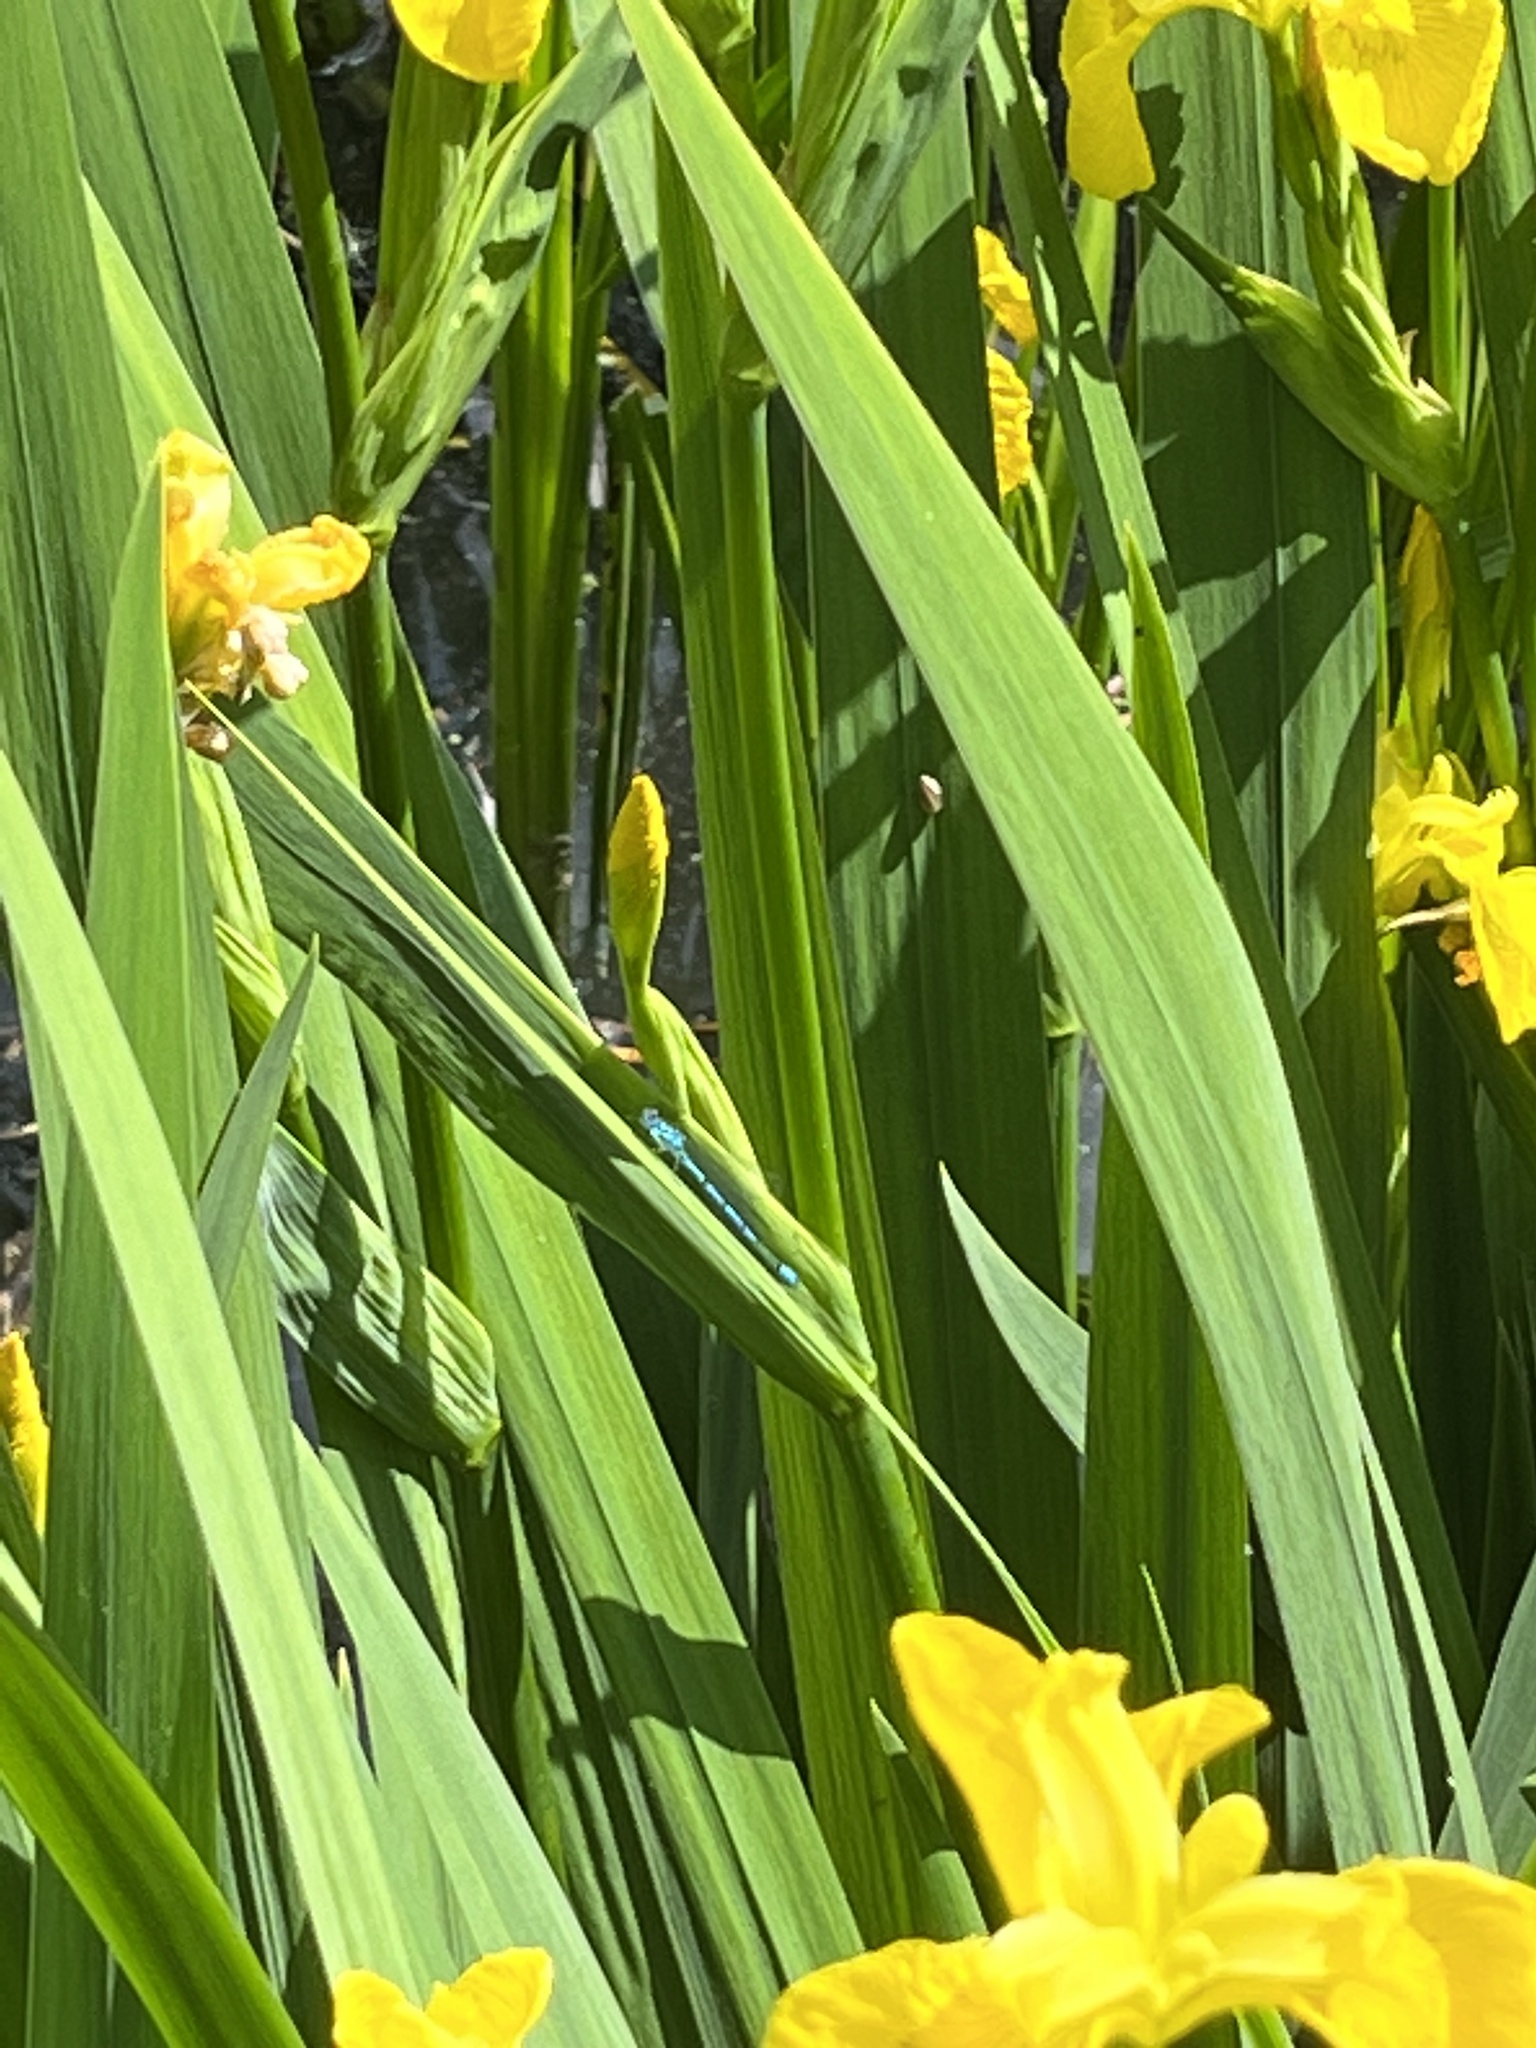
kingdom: Animalia
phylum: Arthropoda
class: Insecta
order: Odonata
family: Coenagrionidae
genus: Enallagma
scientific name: Enallagma cyathigerum
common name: Common blue damselfly
